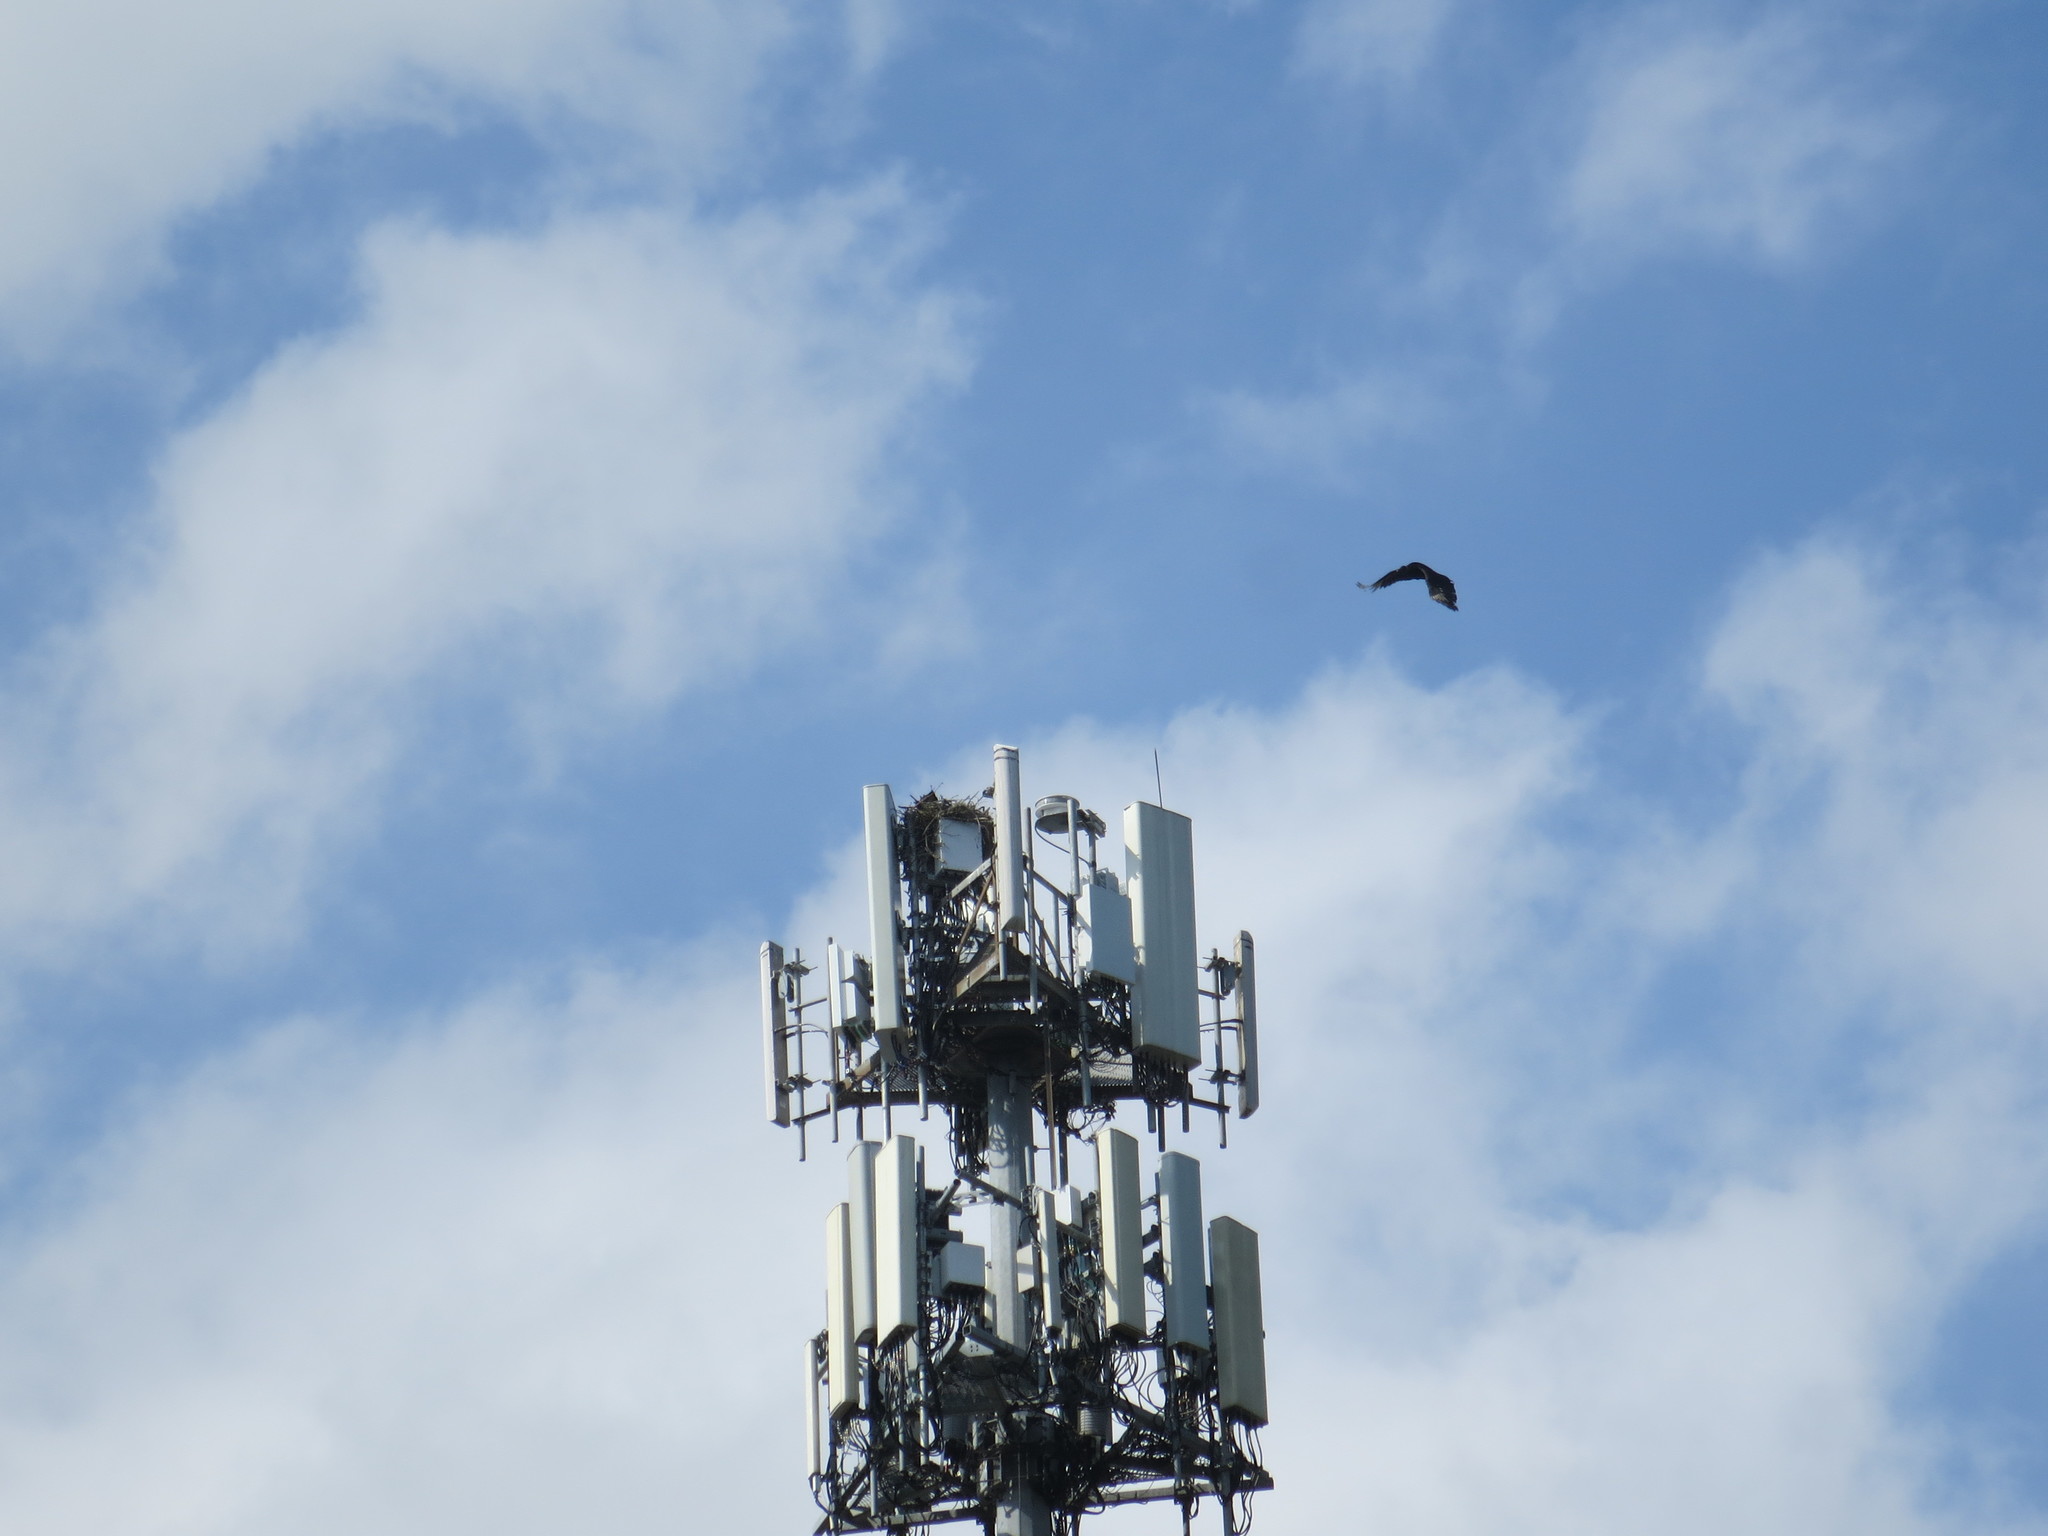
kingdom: Animalia
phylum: Chordata
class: Aves
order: Accipitriformes
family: Cathartidae
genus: Coragyps
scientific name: Coragyps atratus
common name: Black vulture
